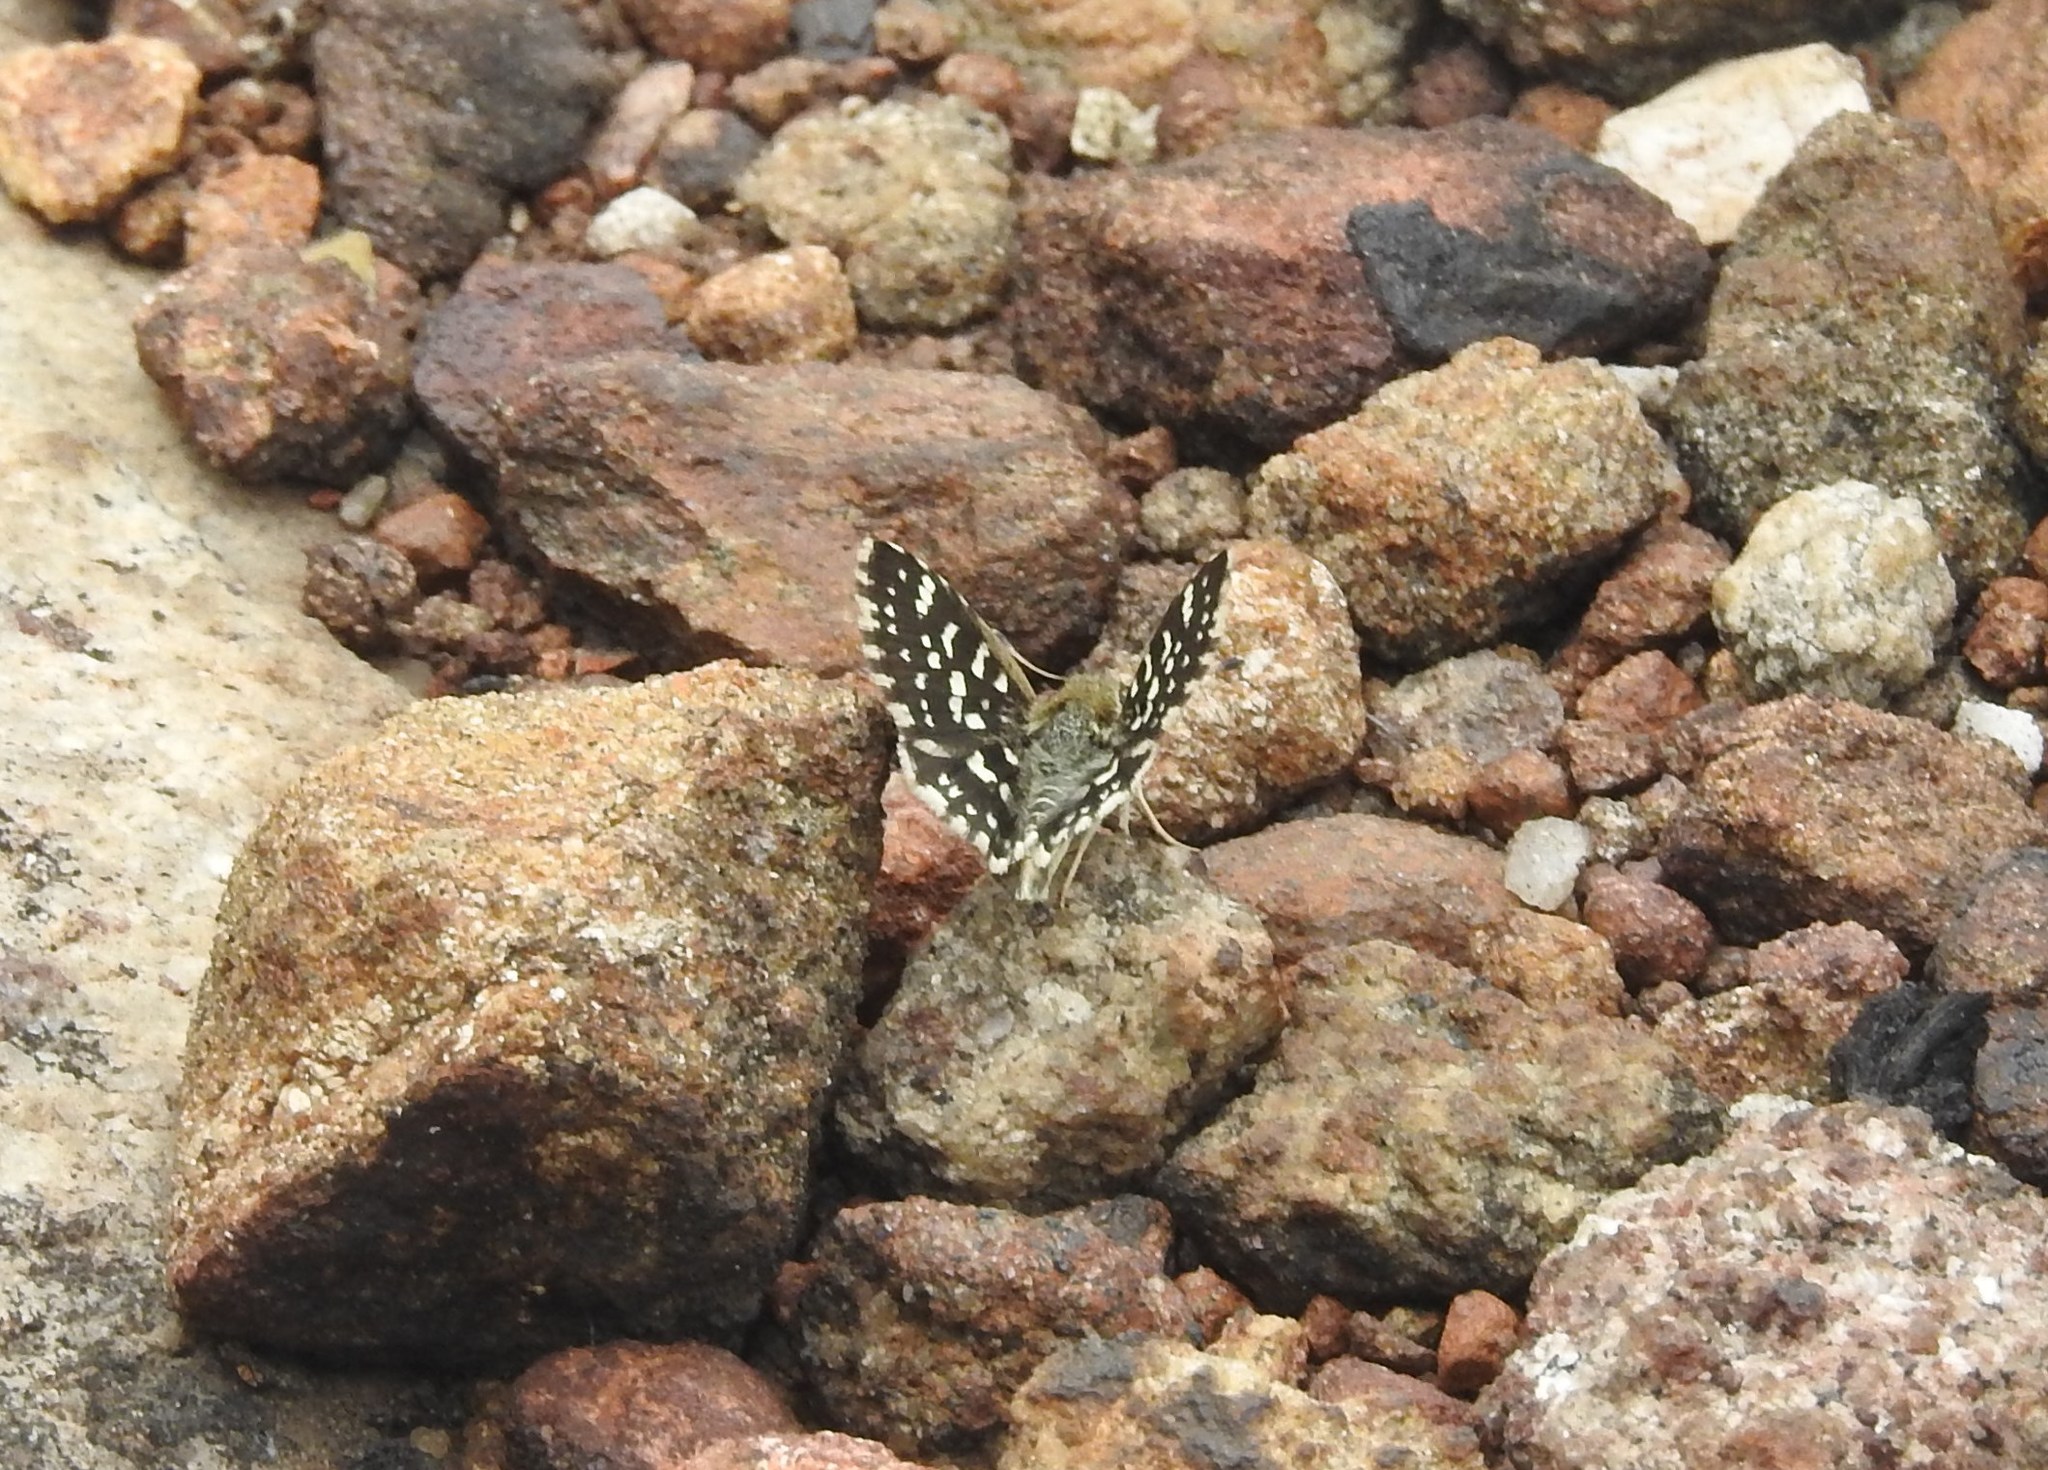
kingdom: Animalia
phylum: Arthropoda
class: Insecta
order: Lepidoptera
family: Hesperiidae
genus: Spialia
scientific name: Spialia galba
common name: Indian skipper
